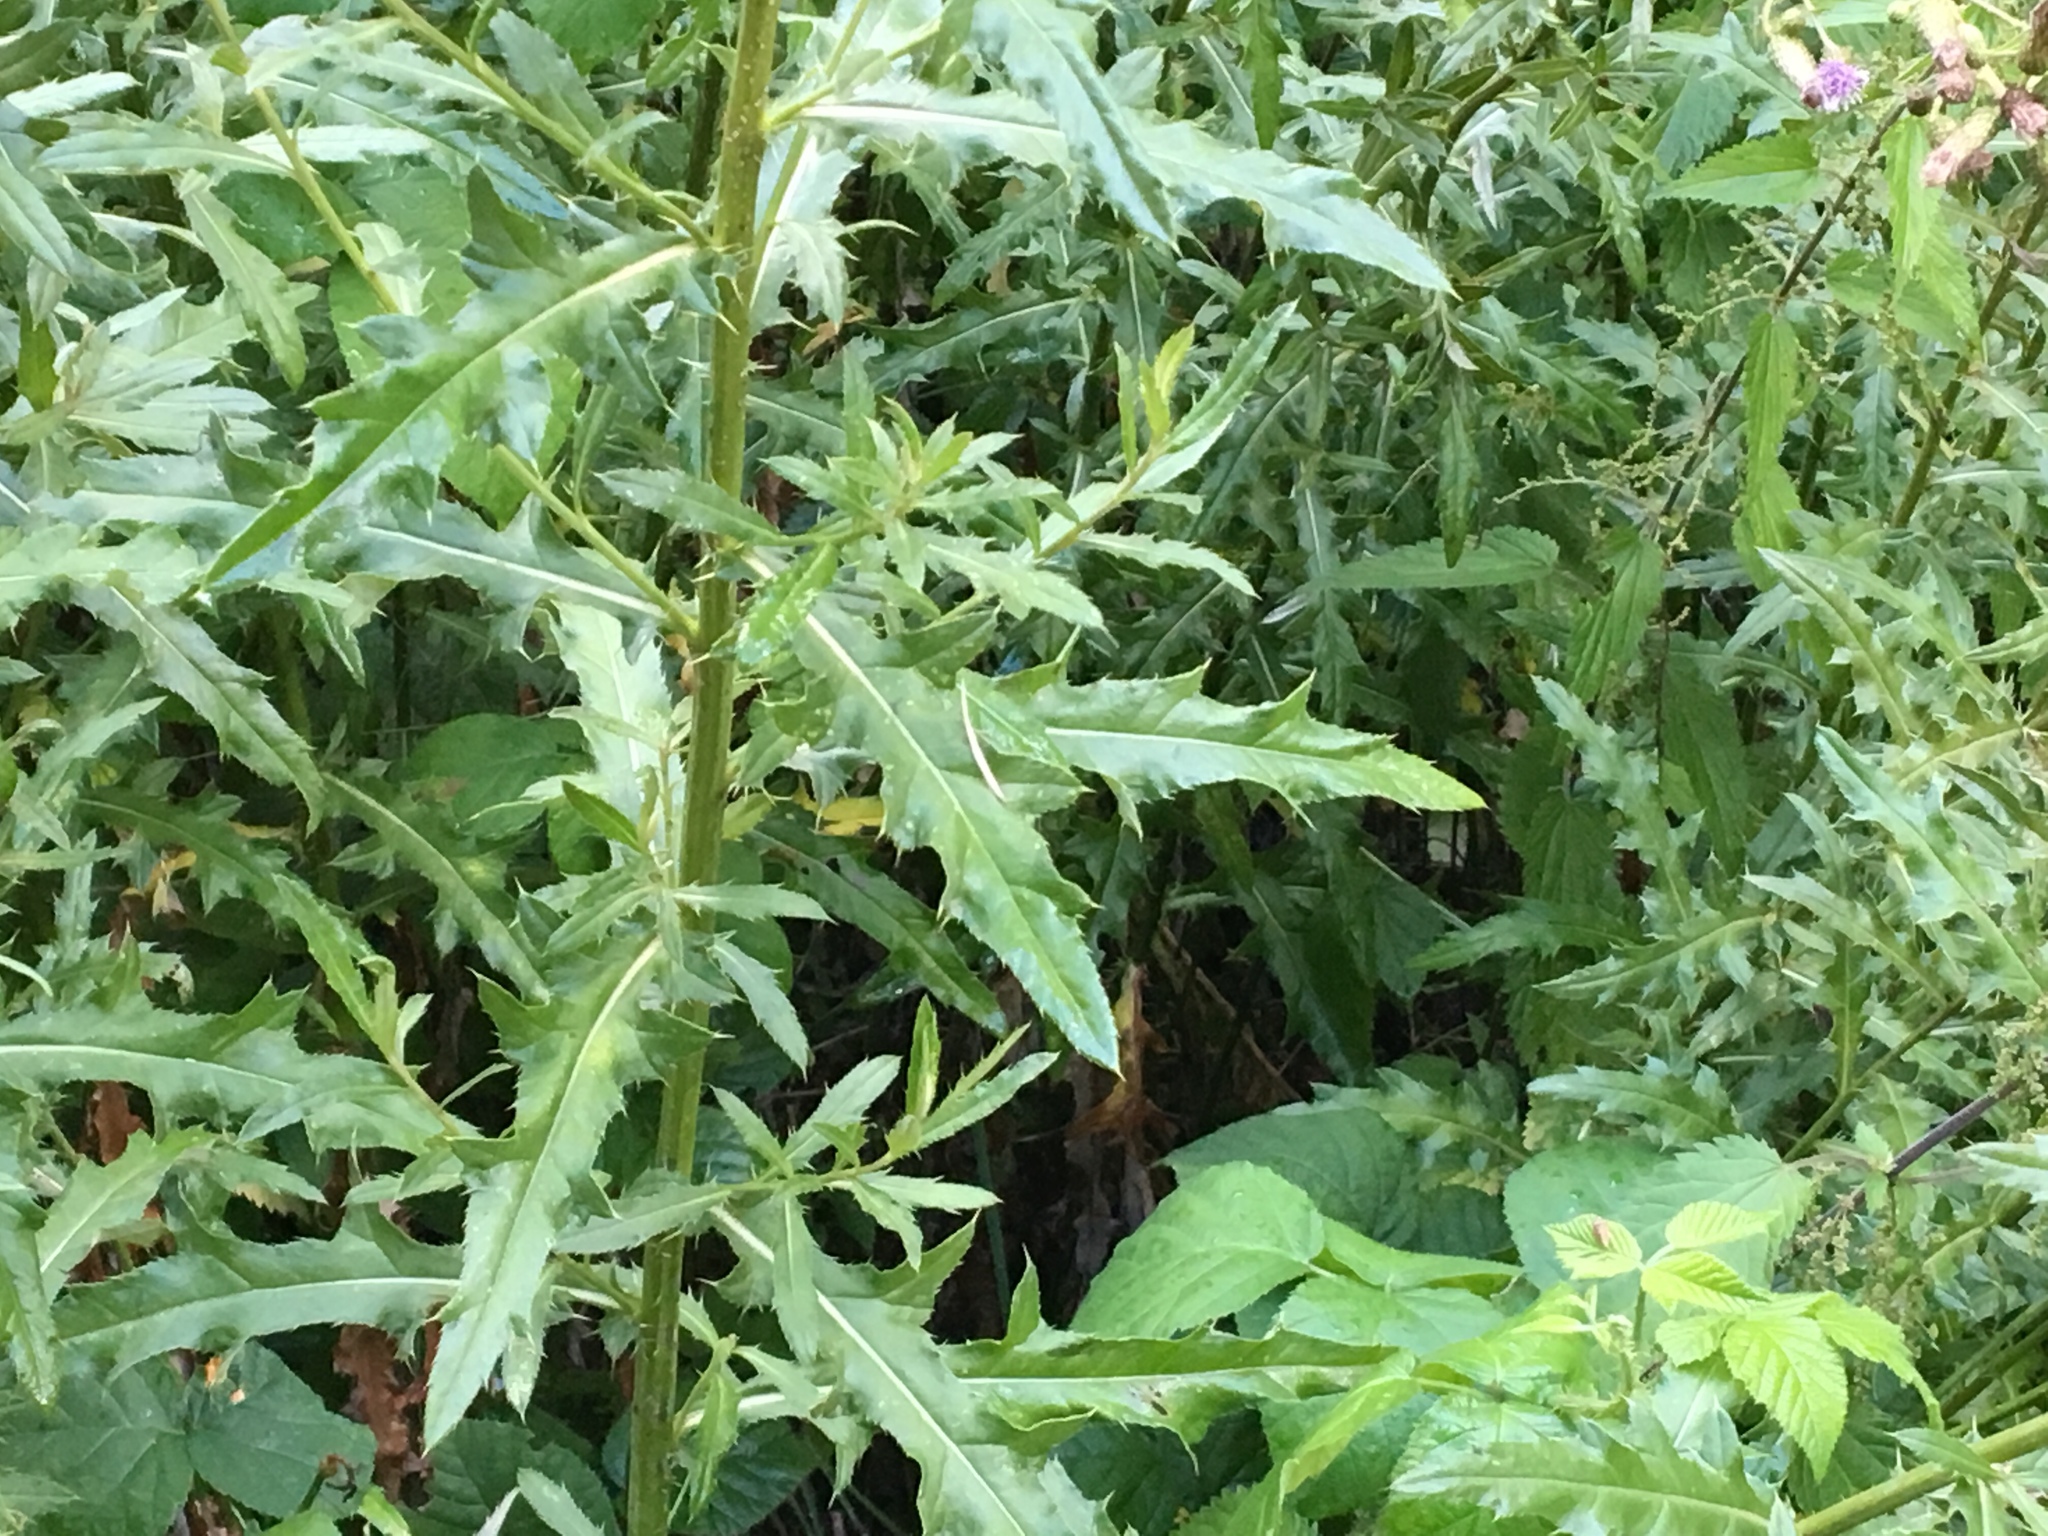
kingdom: Plantae
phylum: Tracheophyta
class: Magnoliopsida
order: Asterales
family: Asteraceae
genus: Cirsium
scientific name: Cirsium arvense
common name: Creeping thistle
